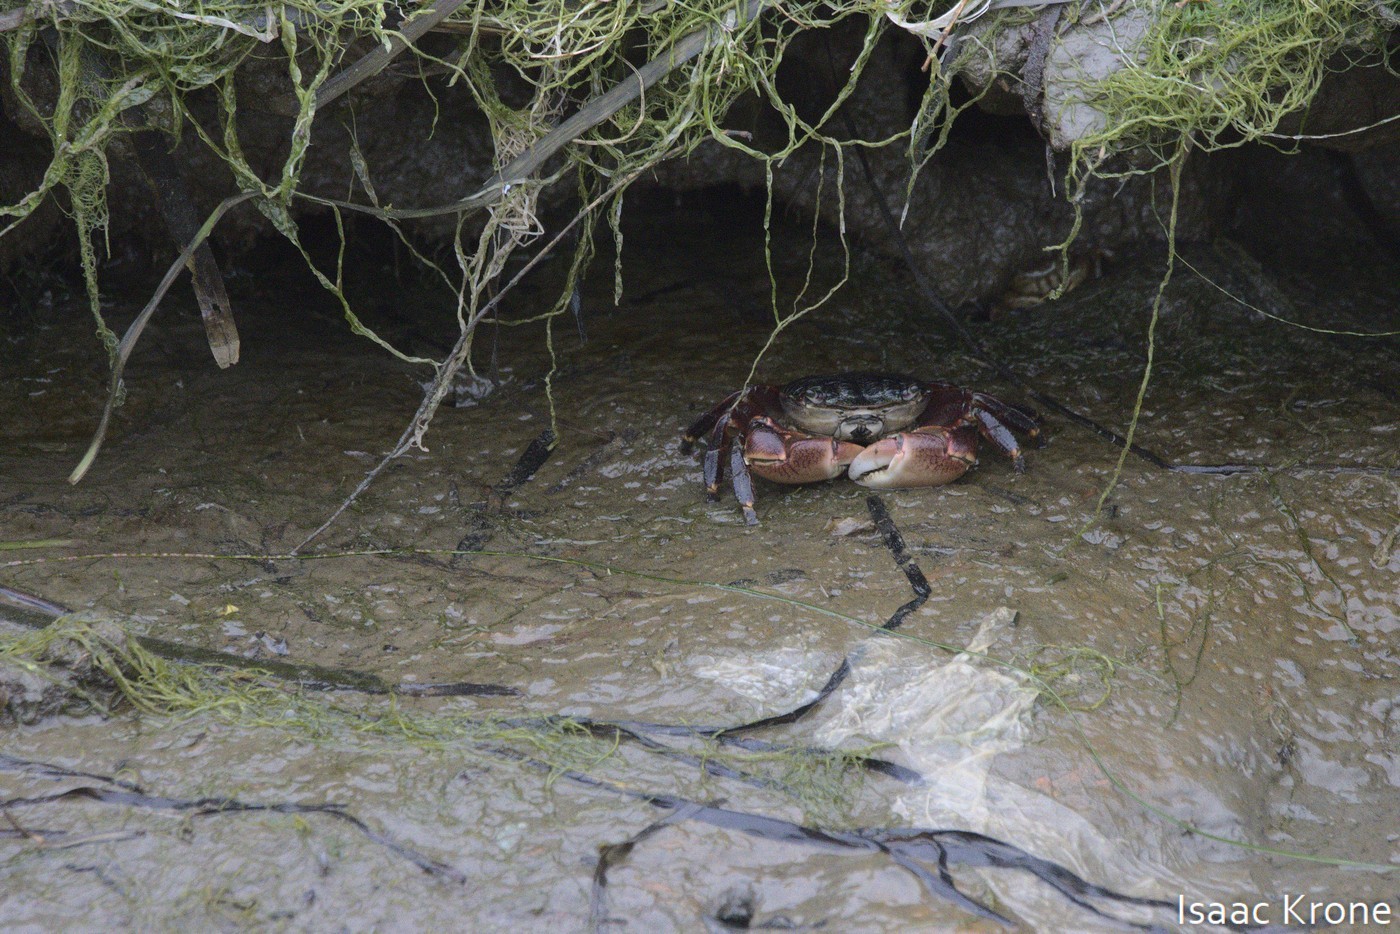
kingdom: Animalia
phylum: Arthropoda
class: Malacostraca
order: Decapoda
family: Grapsidae
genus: Pachygrapsus
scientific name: Pachygrapsus crassipes
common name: Striped shore crab
